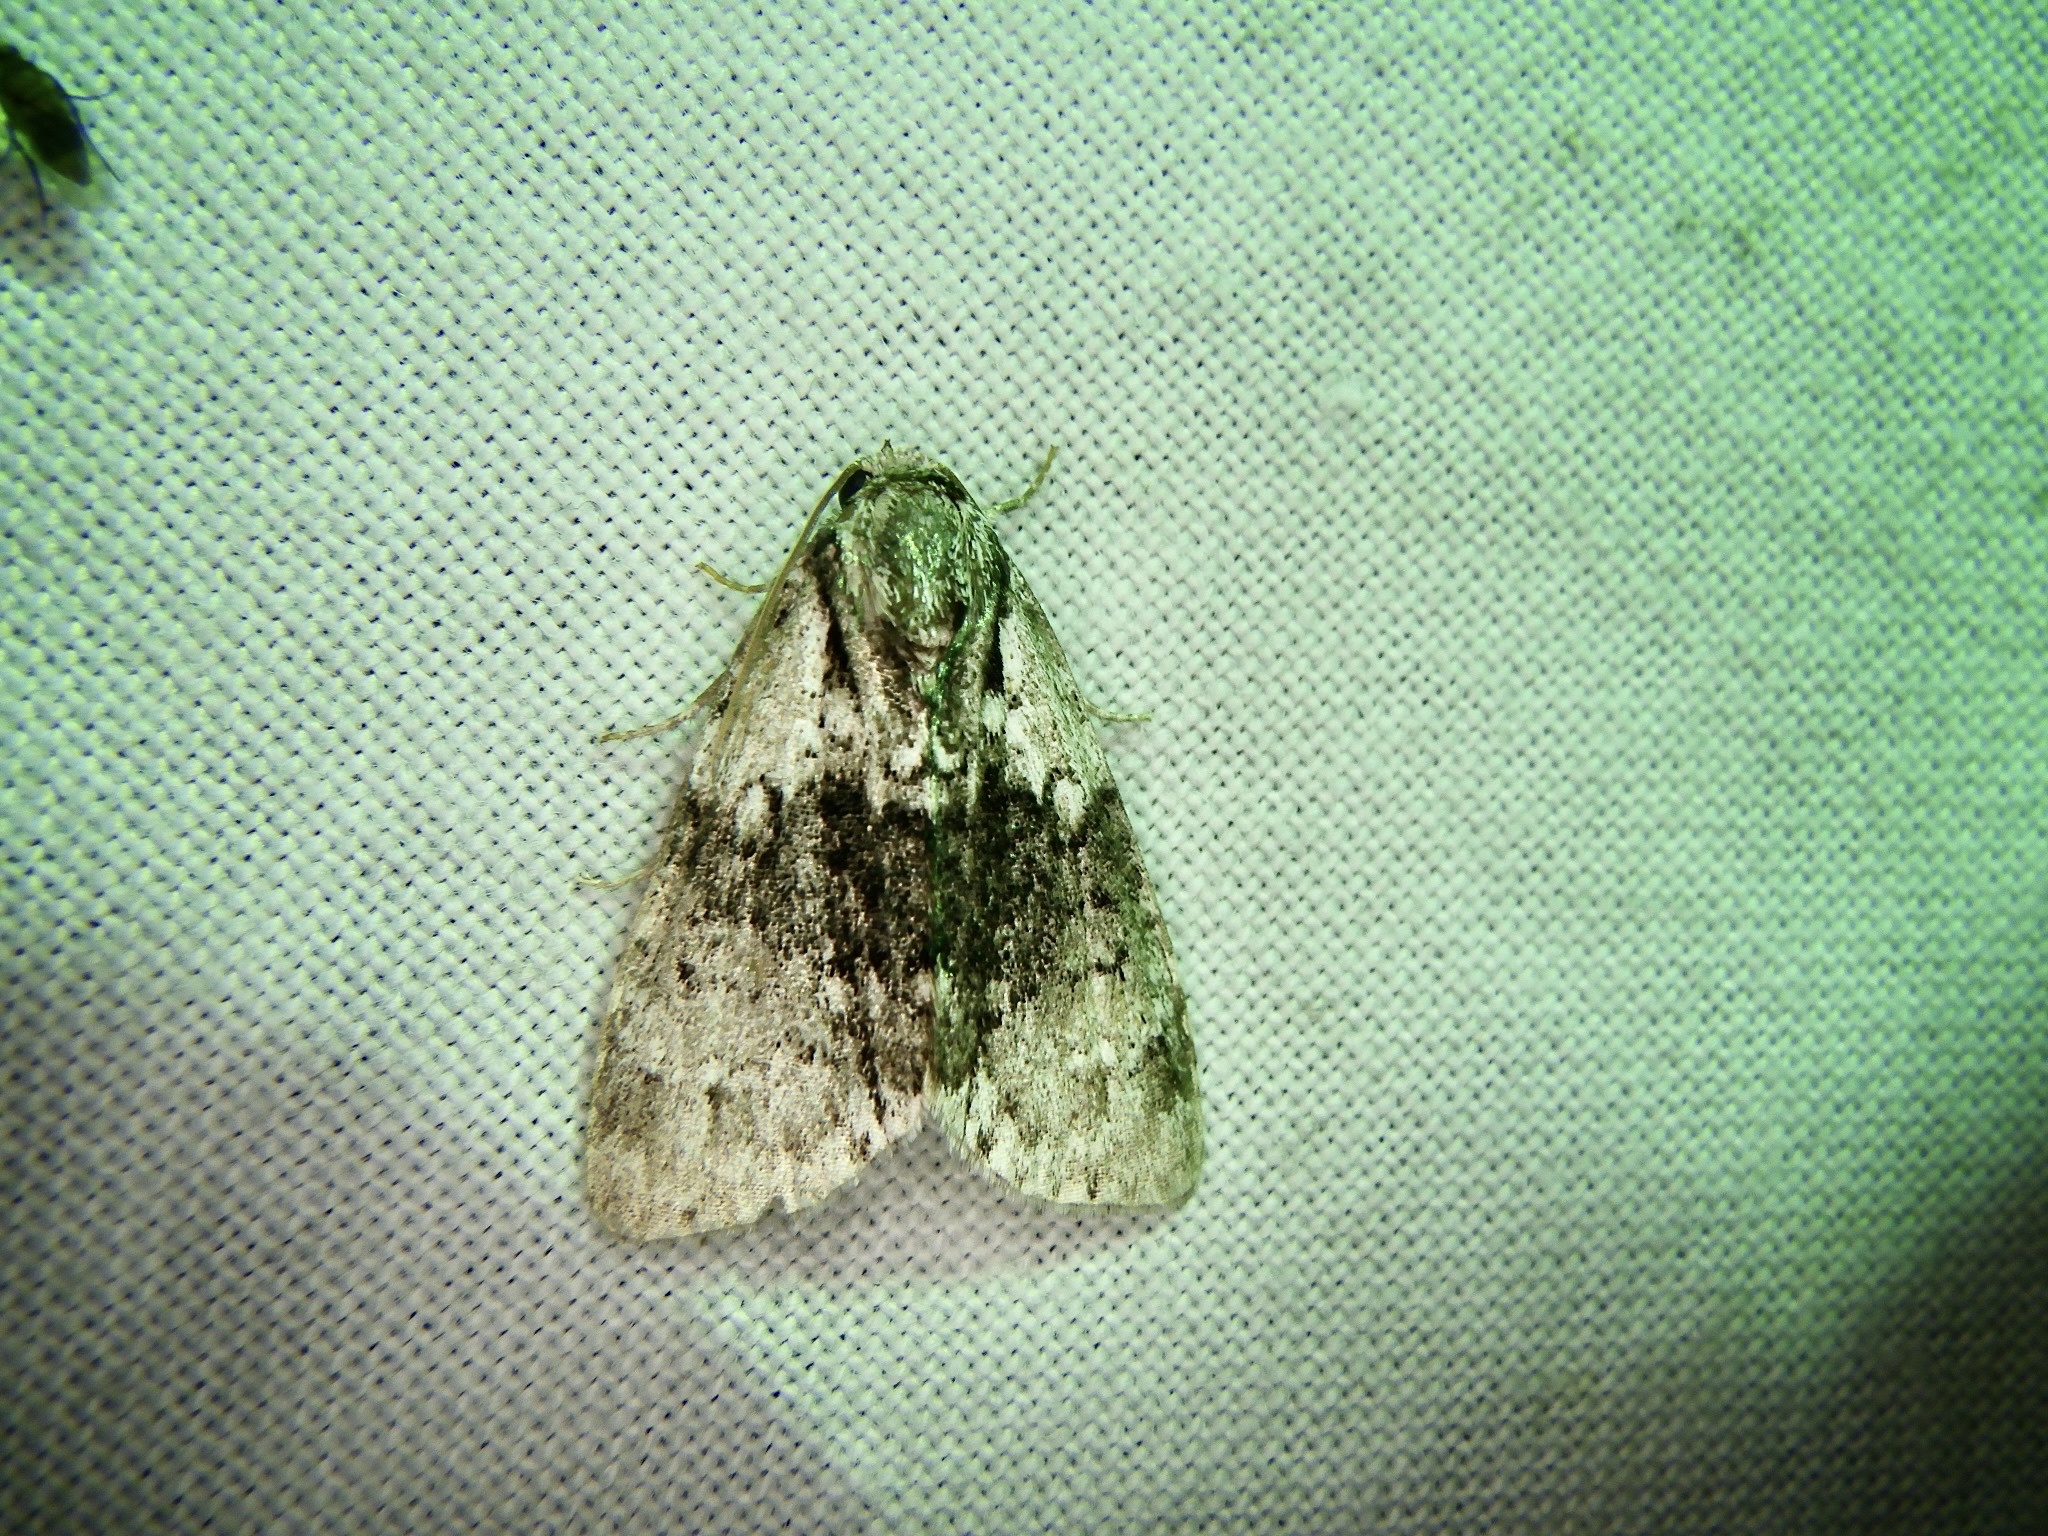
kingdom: Animalia
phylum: Arthropoda
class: Insecta
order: Lepidoptera
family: Noctuidae
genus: Cranionycta
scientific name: Cranionycta jankowskii
